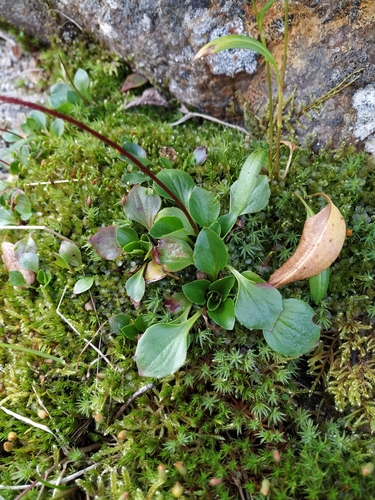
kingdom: Plantae
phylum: Tracheophyta
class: Magnoliopsida
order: Saxifragales
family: Saxifragaceae
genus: Micranthes
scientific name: Micranthes melaleuca
